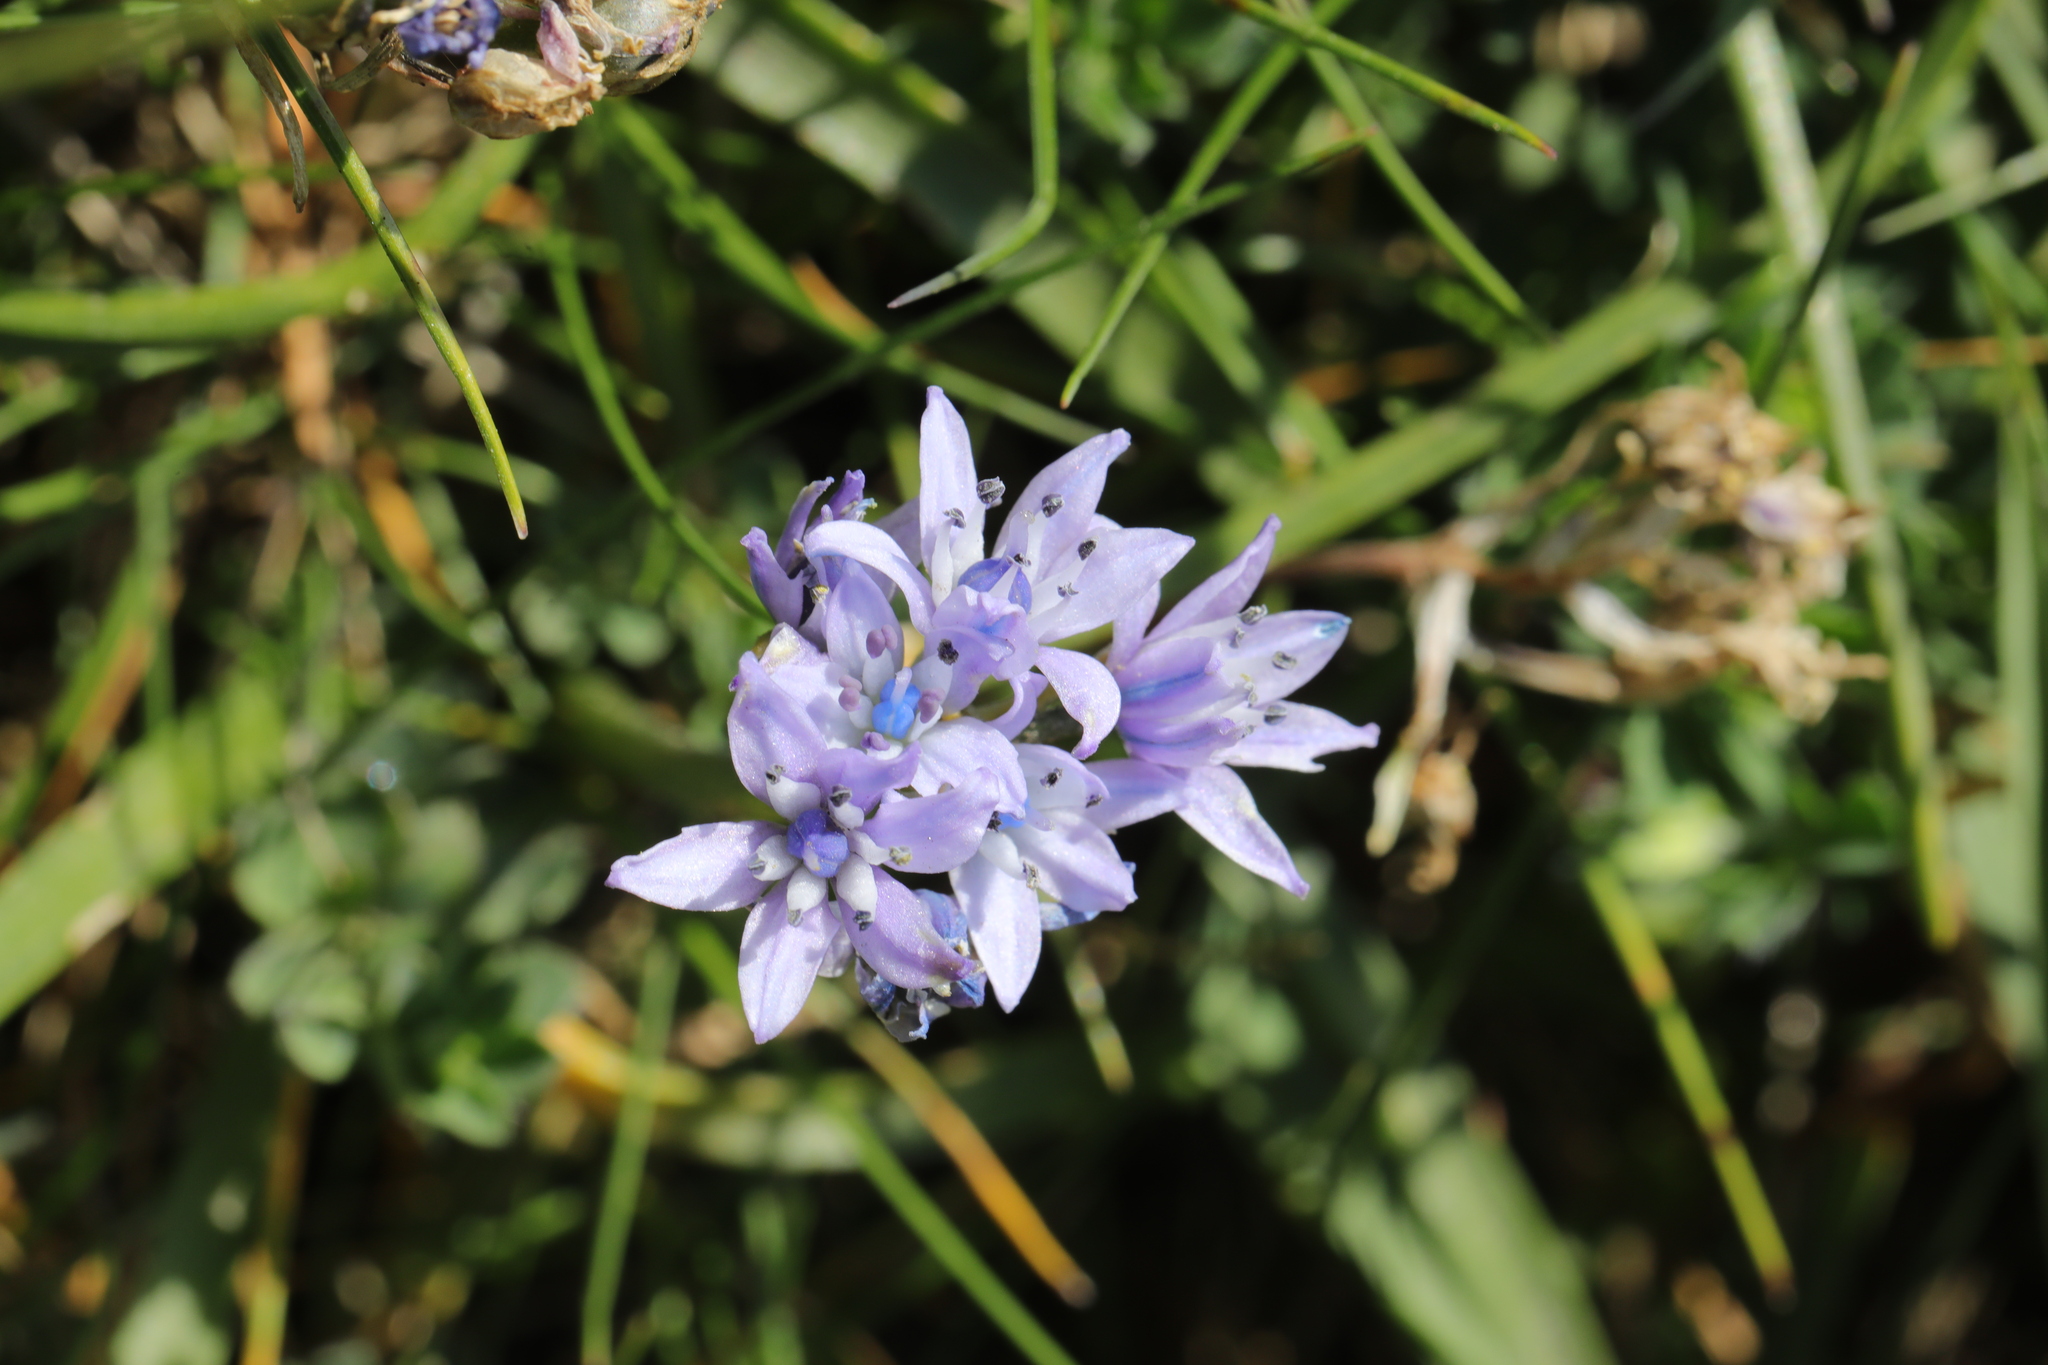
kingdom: Plantae
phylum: Tracheophyta
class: Liliopsida
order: Asparagales
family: Asparagaceae
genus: Scilla
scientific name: Scilla verna
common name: Spring squill
